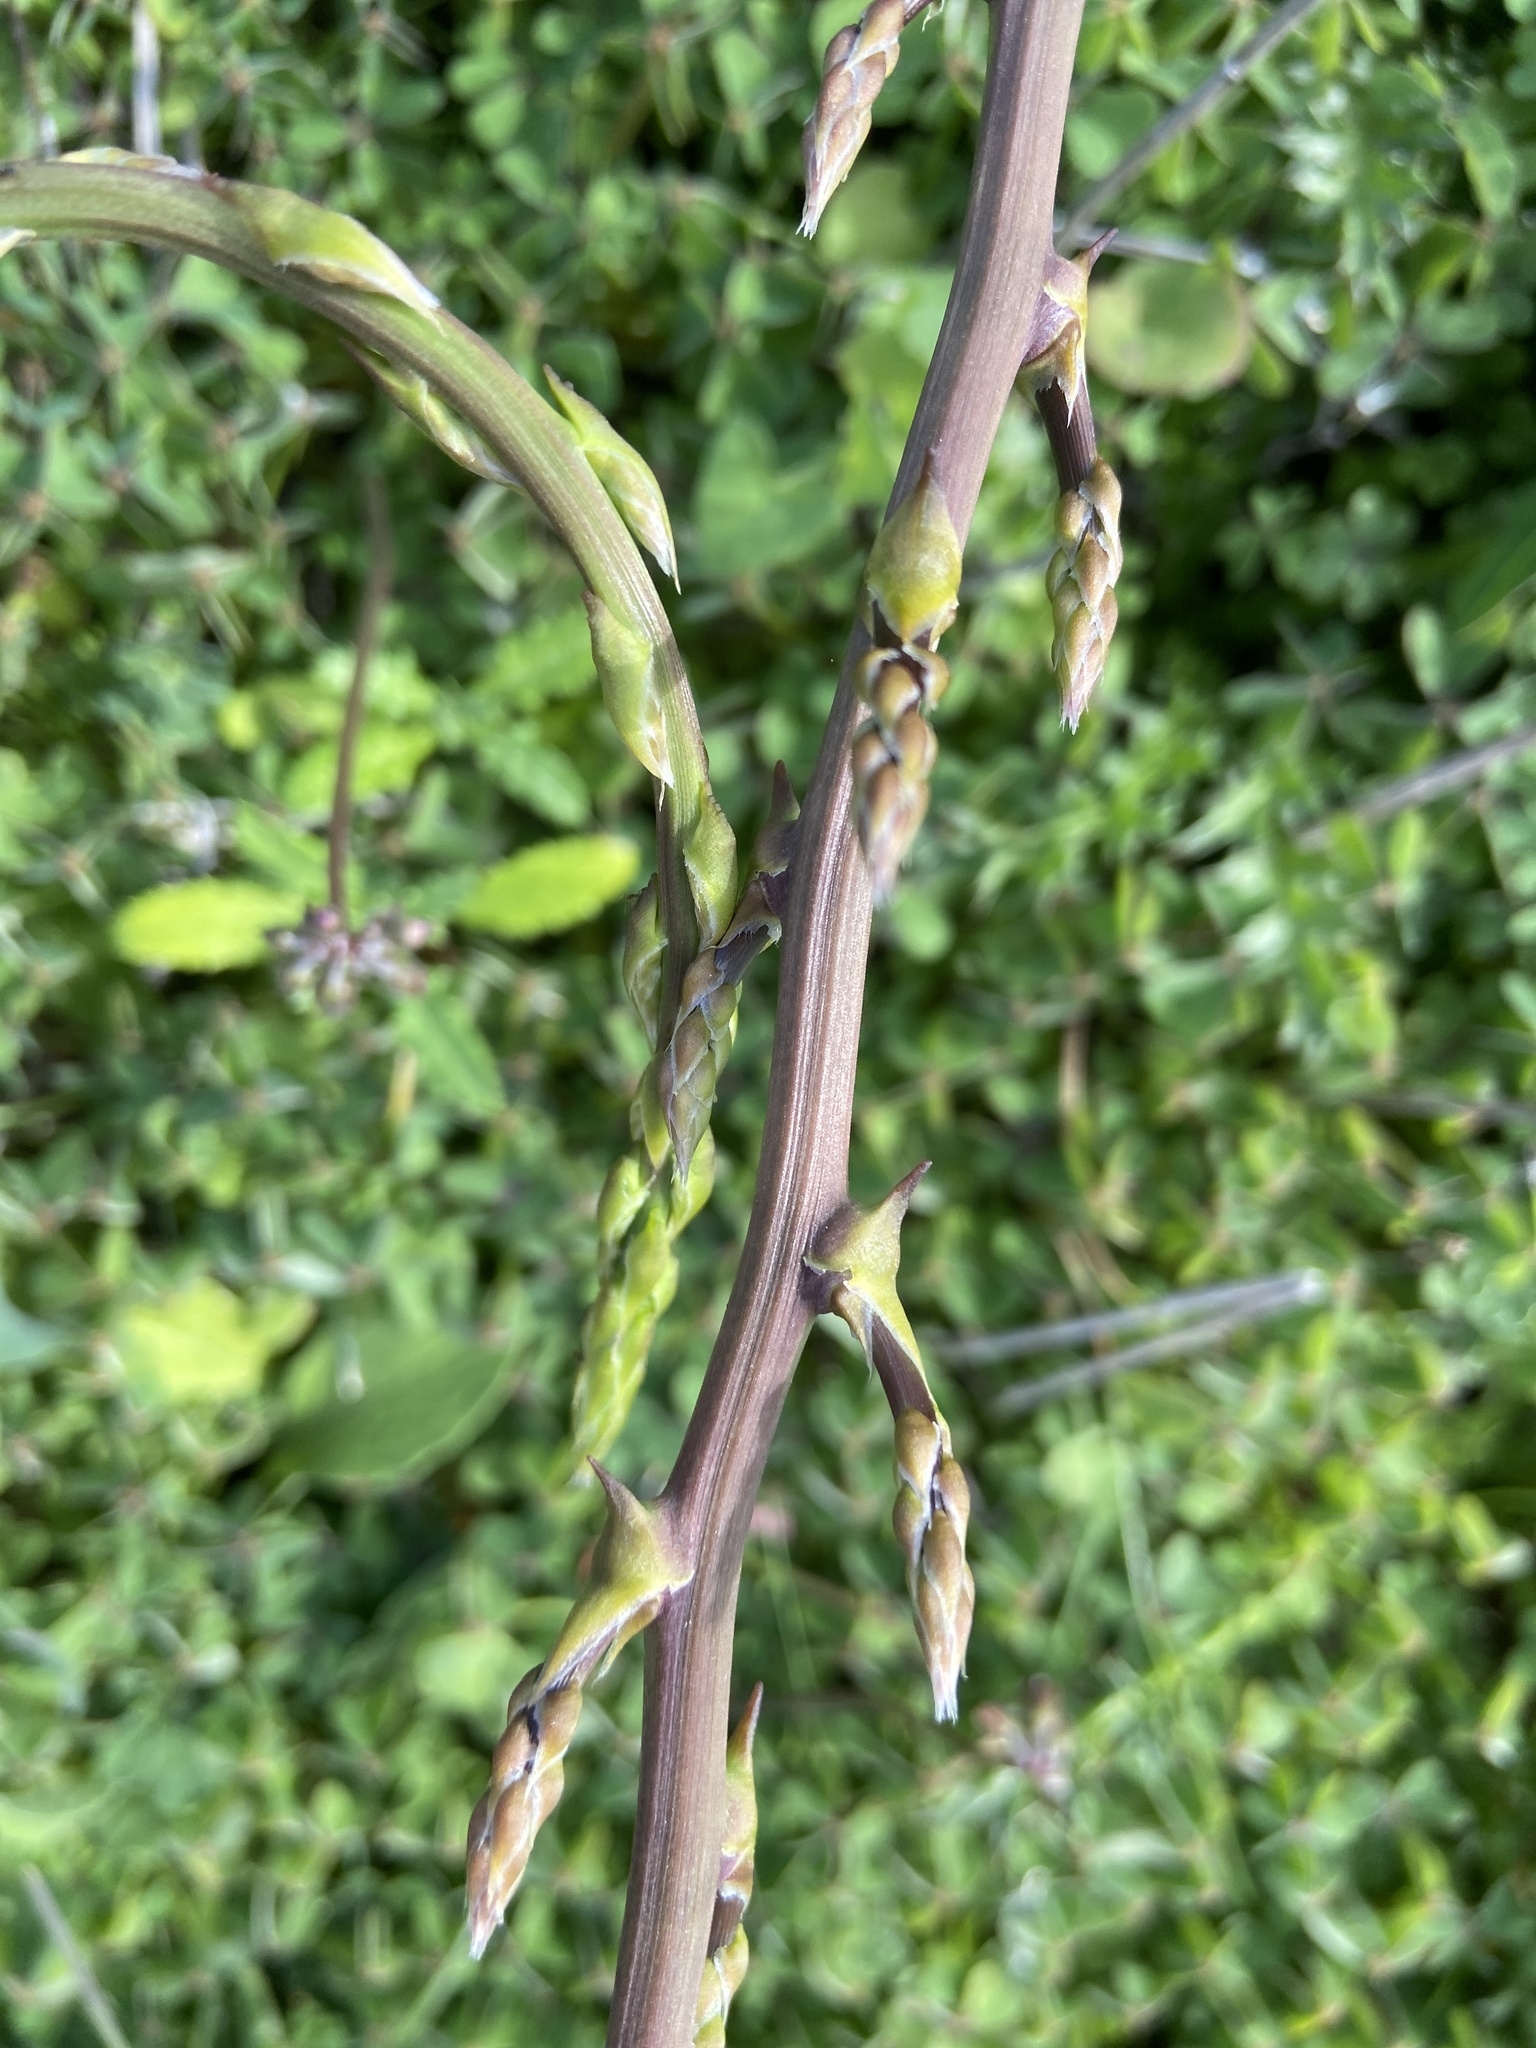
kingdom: Plantae
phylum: Tracheophyta
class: Liliopsida
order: Asparagales
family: Asparagaceae
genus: Asparagus
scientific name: Asparagus aphyllus
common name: Mediterranean asparagus
